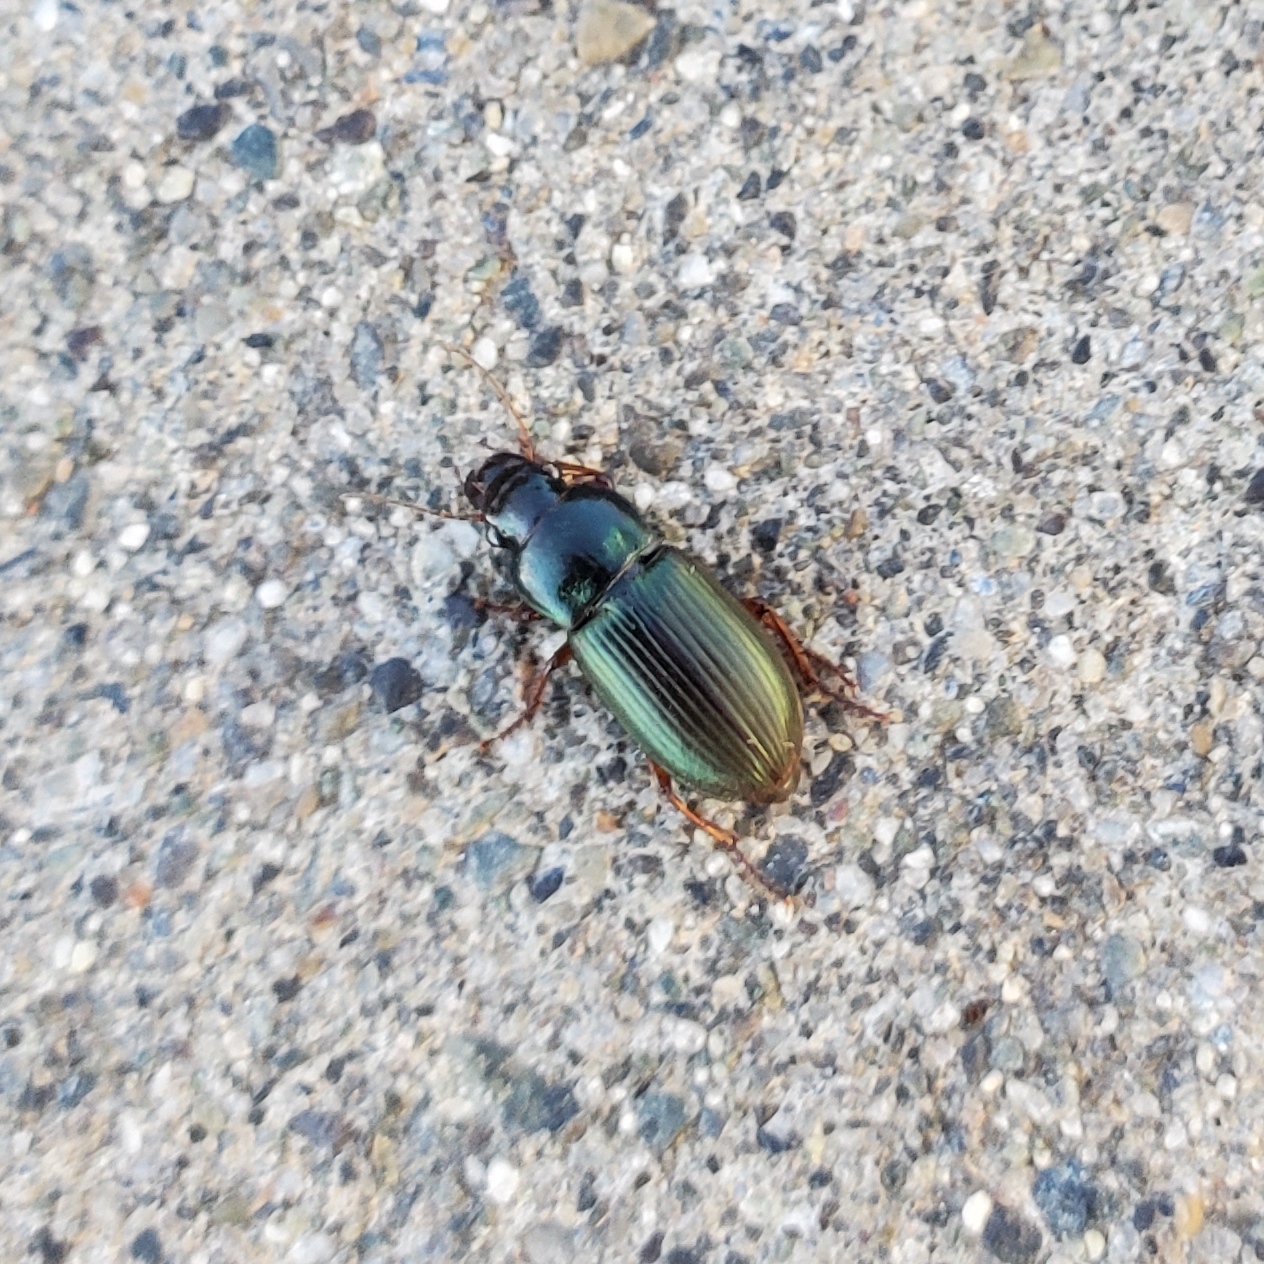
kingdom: Animalia
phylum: Arthropoda
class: Insecta
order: Coleoptera
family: Carabidae
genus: Harpalus
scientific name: Harpalus affinis
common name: Polychrome harp ground beetle
